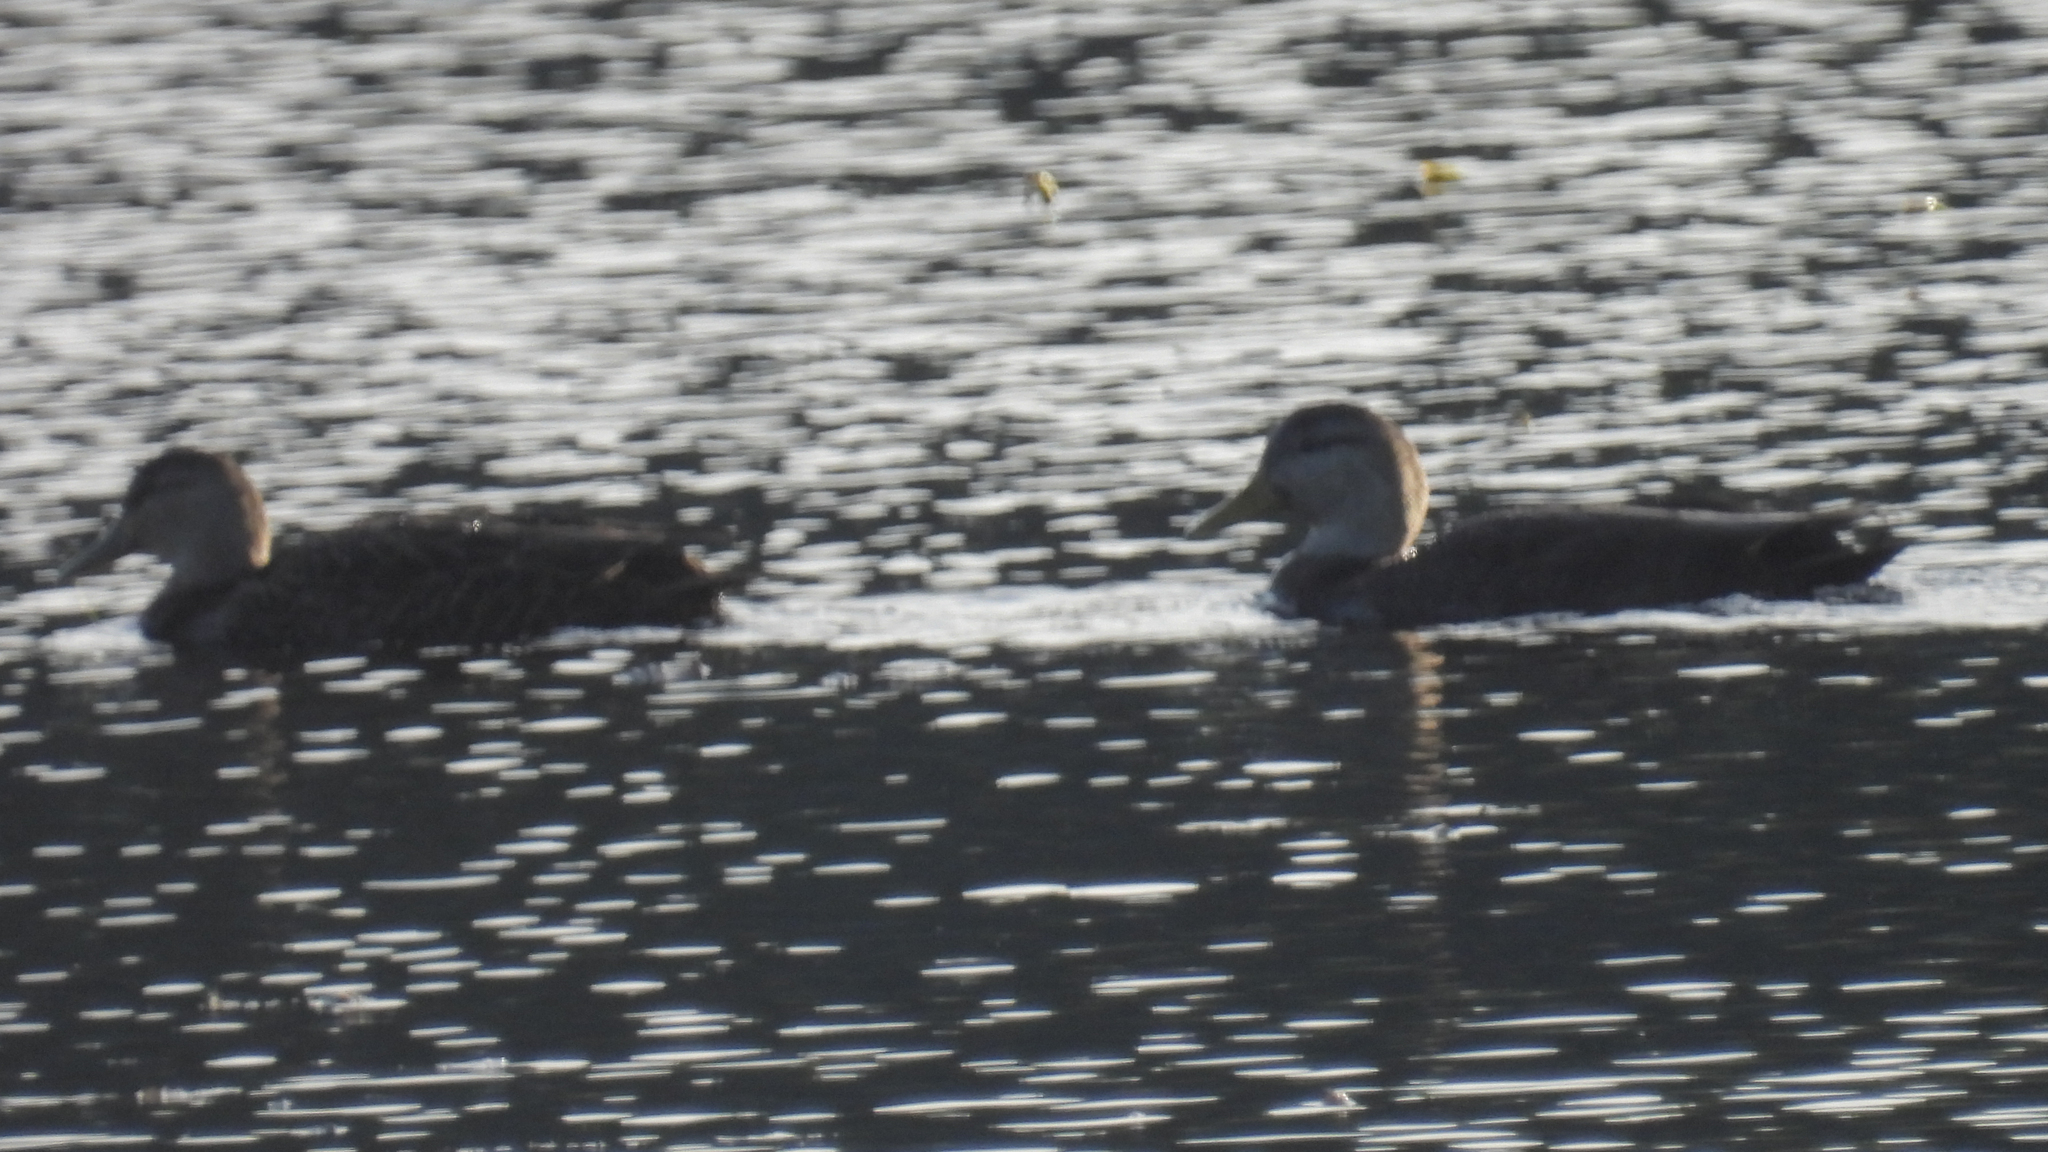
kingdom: Animalia
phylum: Chordata
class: Aves
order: Anseriformes
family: Anatidae
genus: Anas
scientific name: Anas rubripes
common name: American black duck
